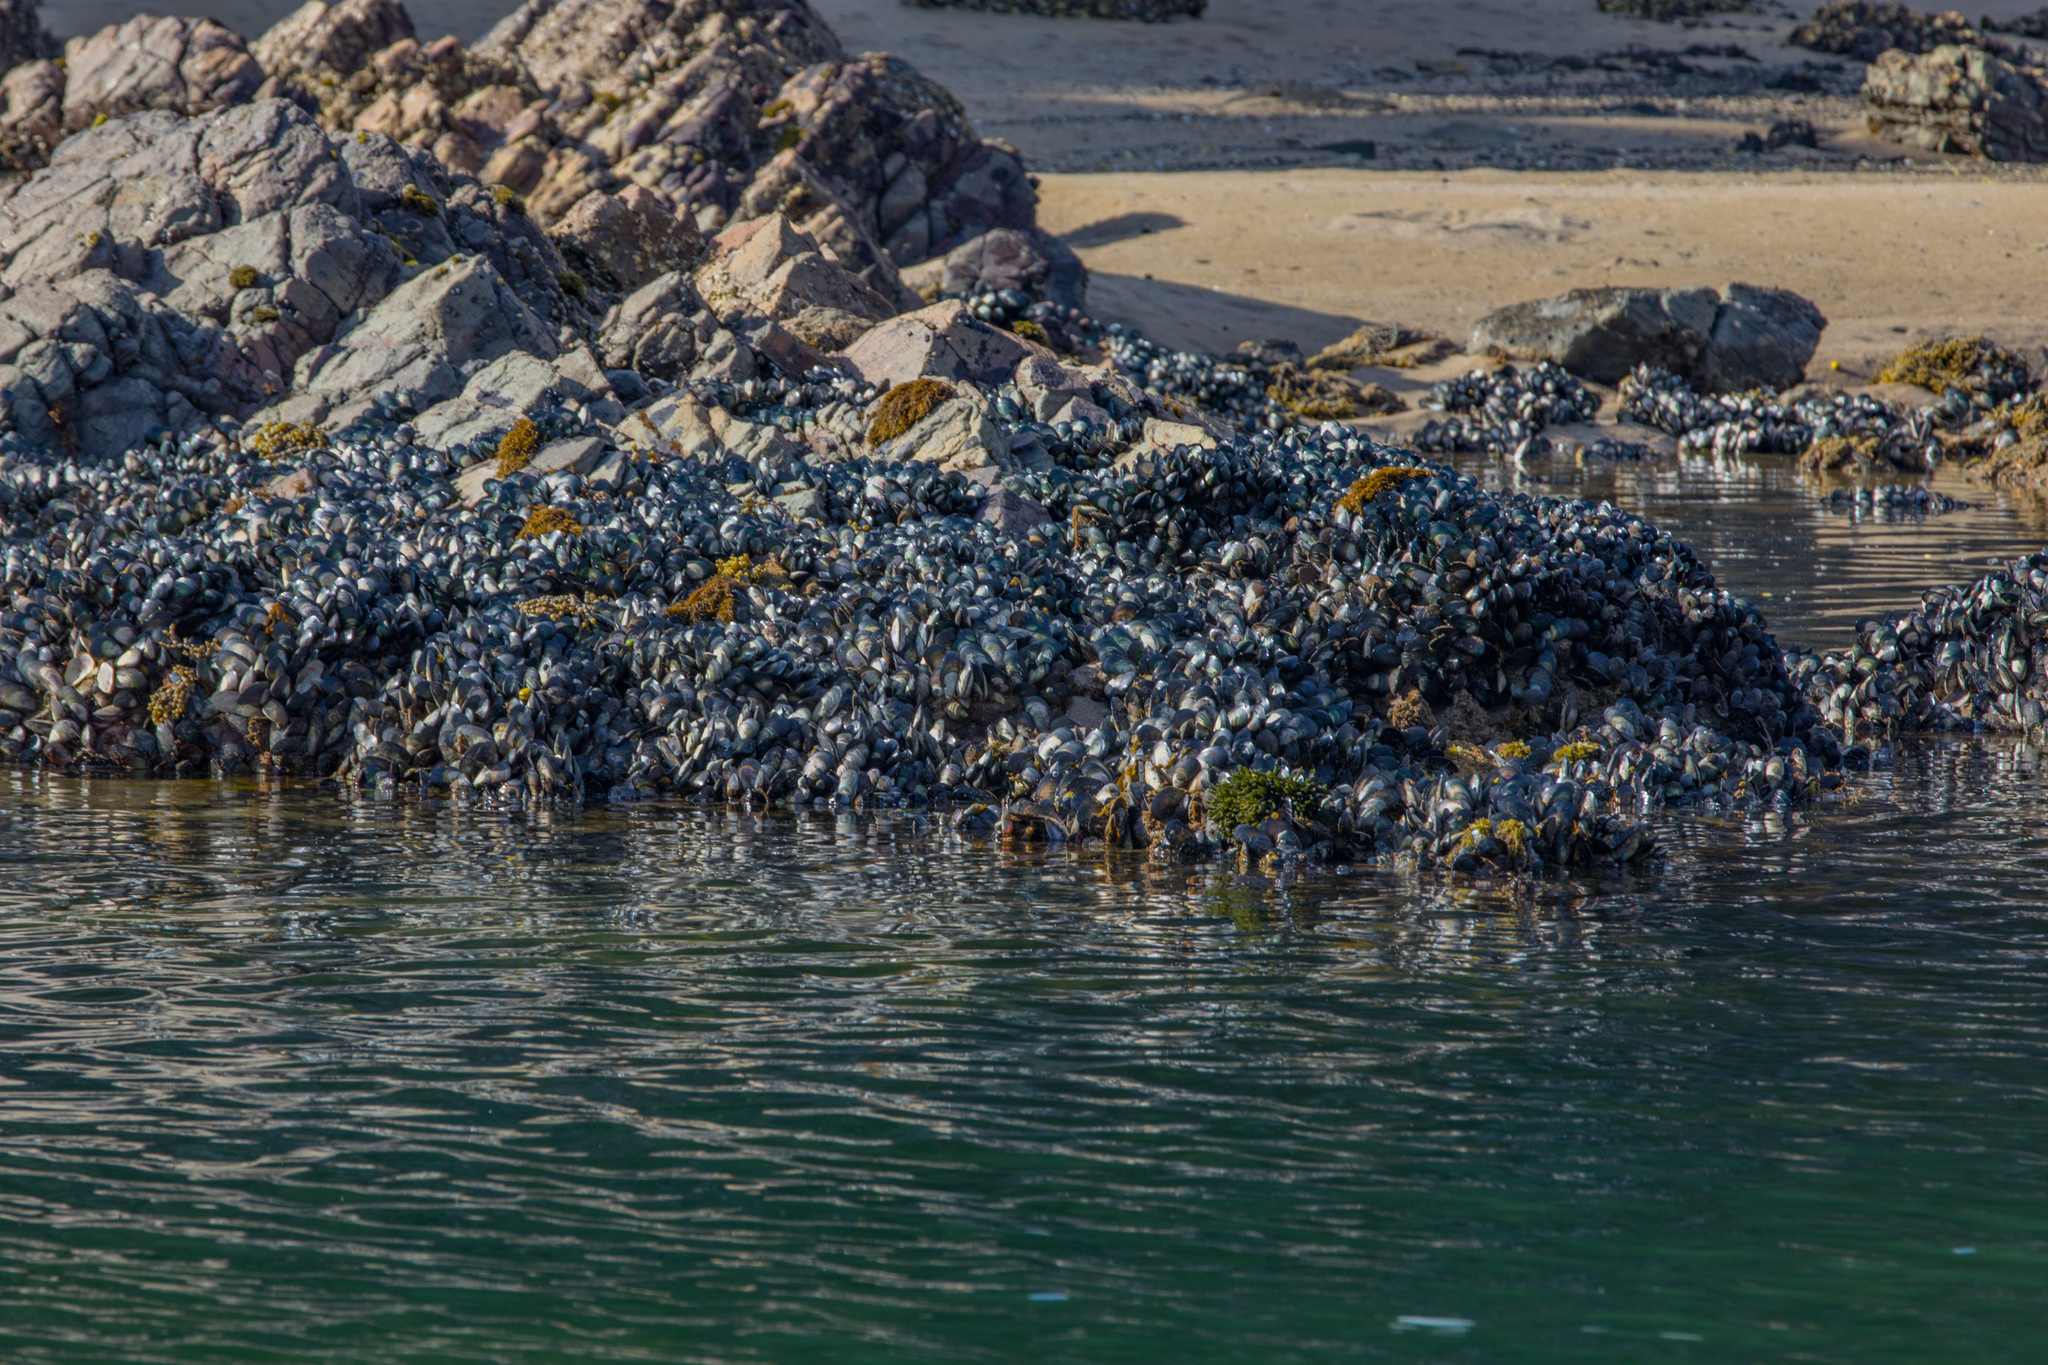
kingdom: Animalia
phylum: Mollusca
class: Bivalvia
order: Mytilida
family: Mytilidae
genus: Perna
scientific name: Perna canaliculus
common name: New zealand greenshelltm
